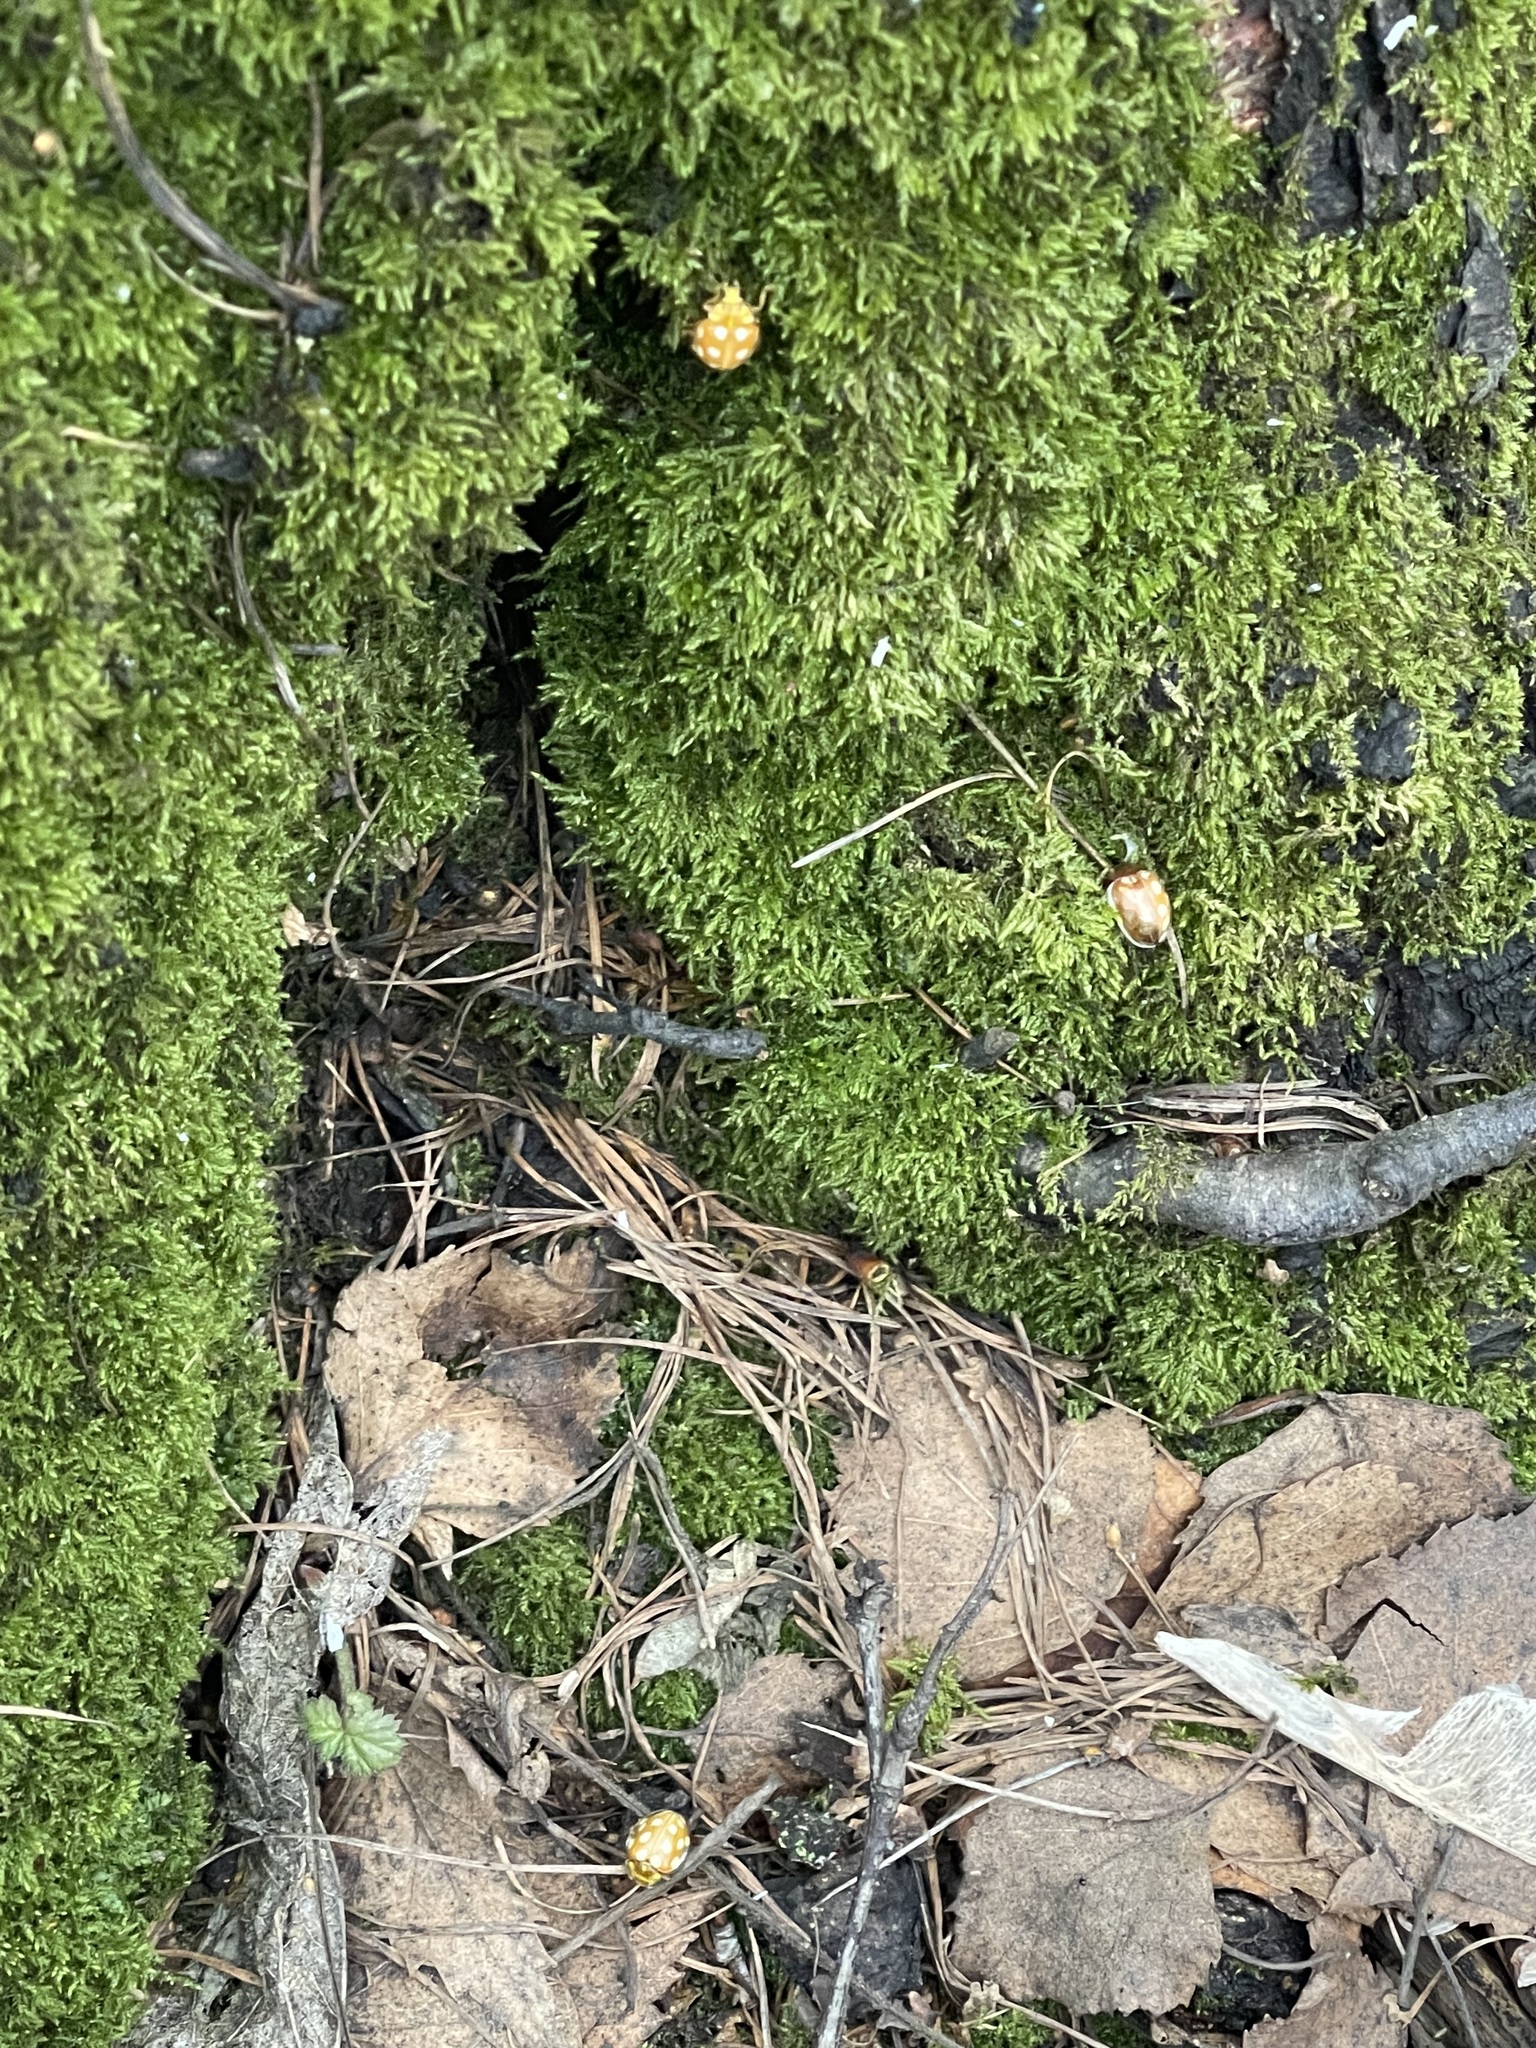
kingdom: Animalia
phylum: Arthropoda
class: Insecta
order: Coleoptera
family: Coccinellidae
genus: Halyzia
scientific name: Halyzia sedecimguttata
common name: Orange ladybird
